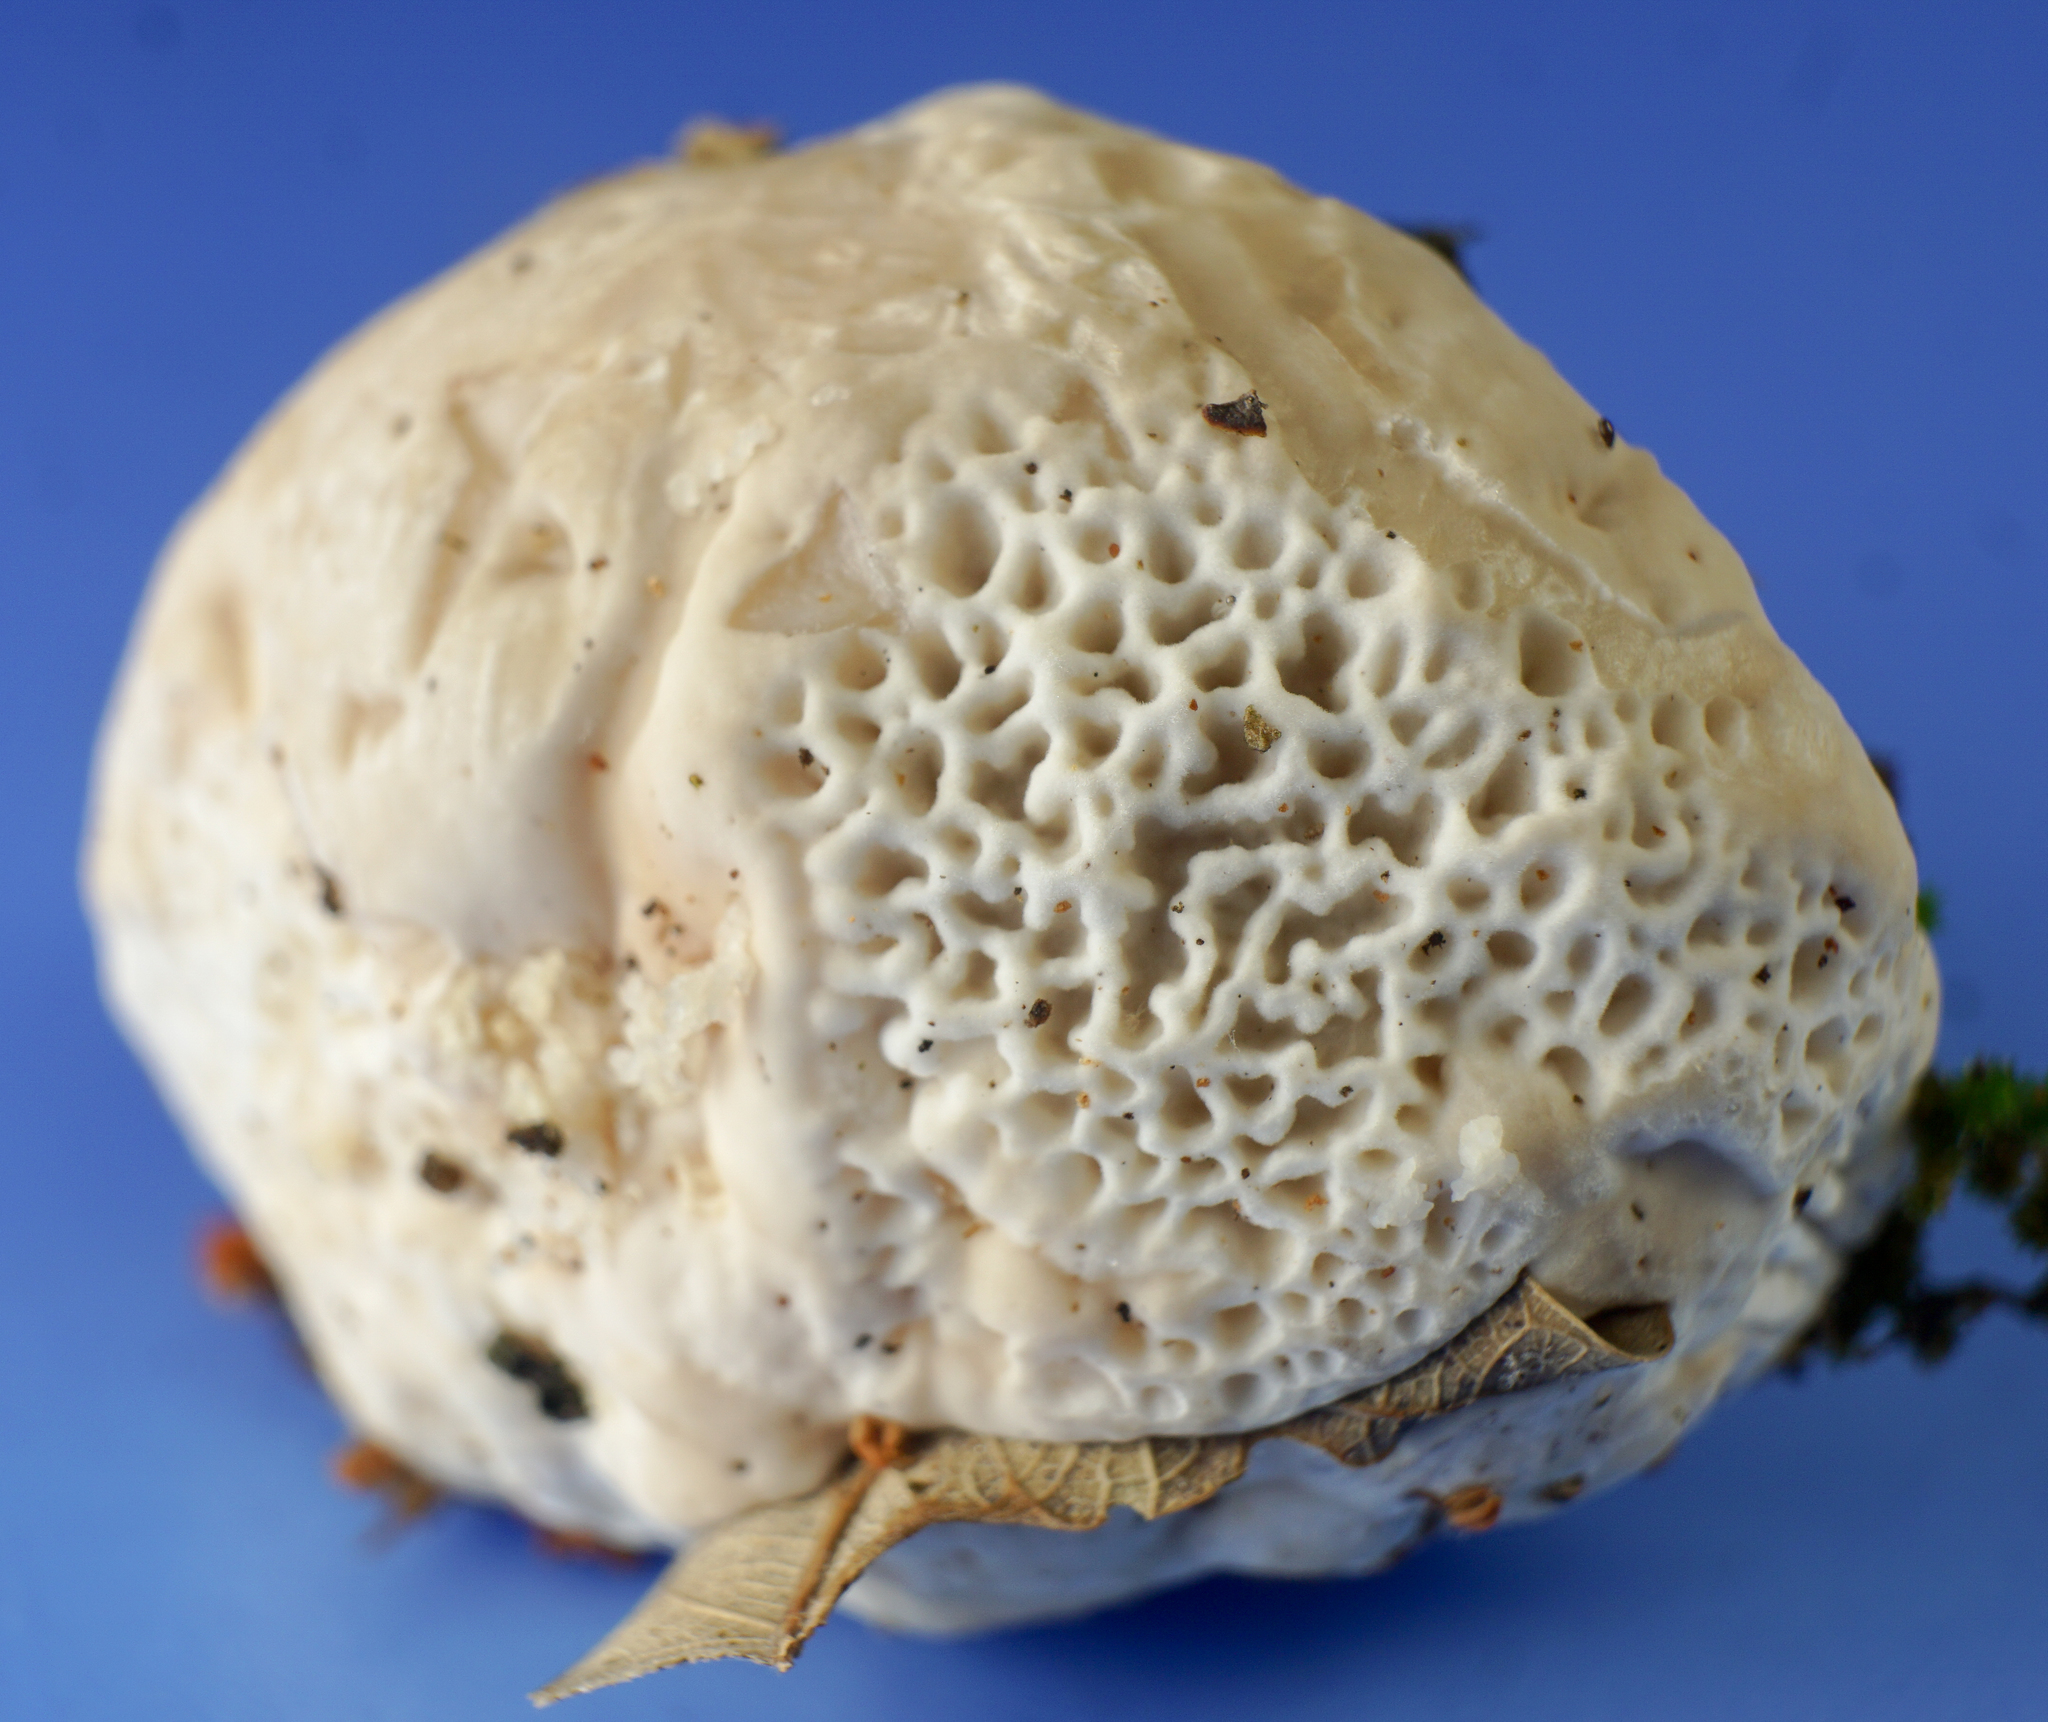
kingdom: Fungi
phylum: Basidiomycota
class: Agaricomycetes
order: Polyporales
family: Polyporaceae
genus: Trametes
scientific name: Trametes gibbosa
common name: Lumpy bracket
